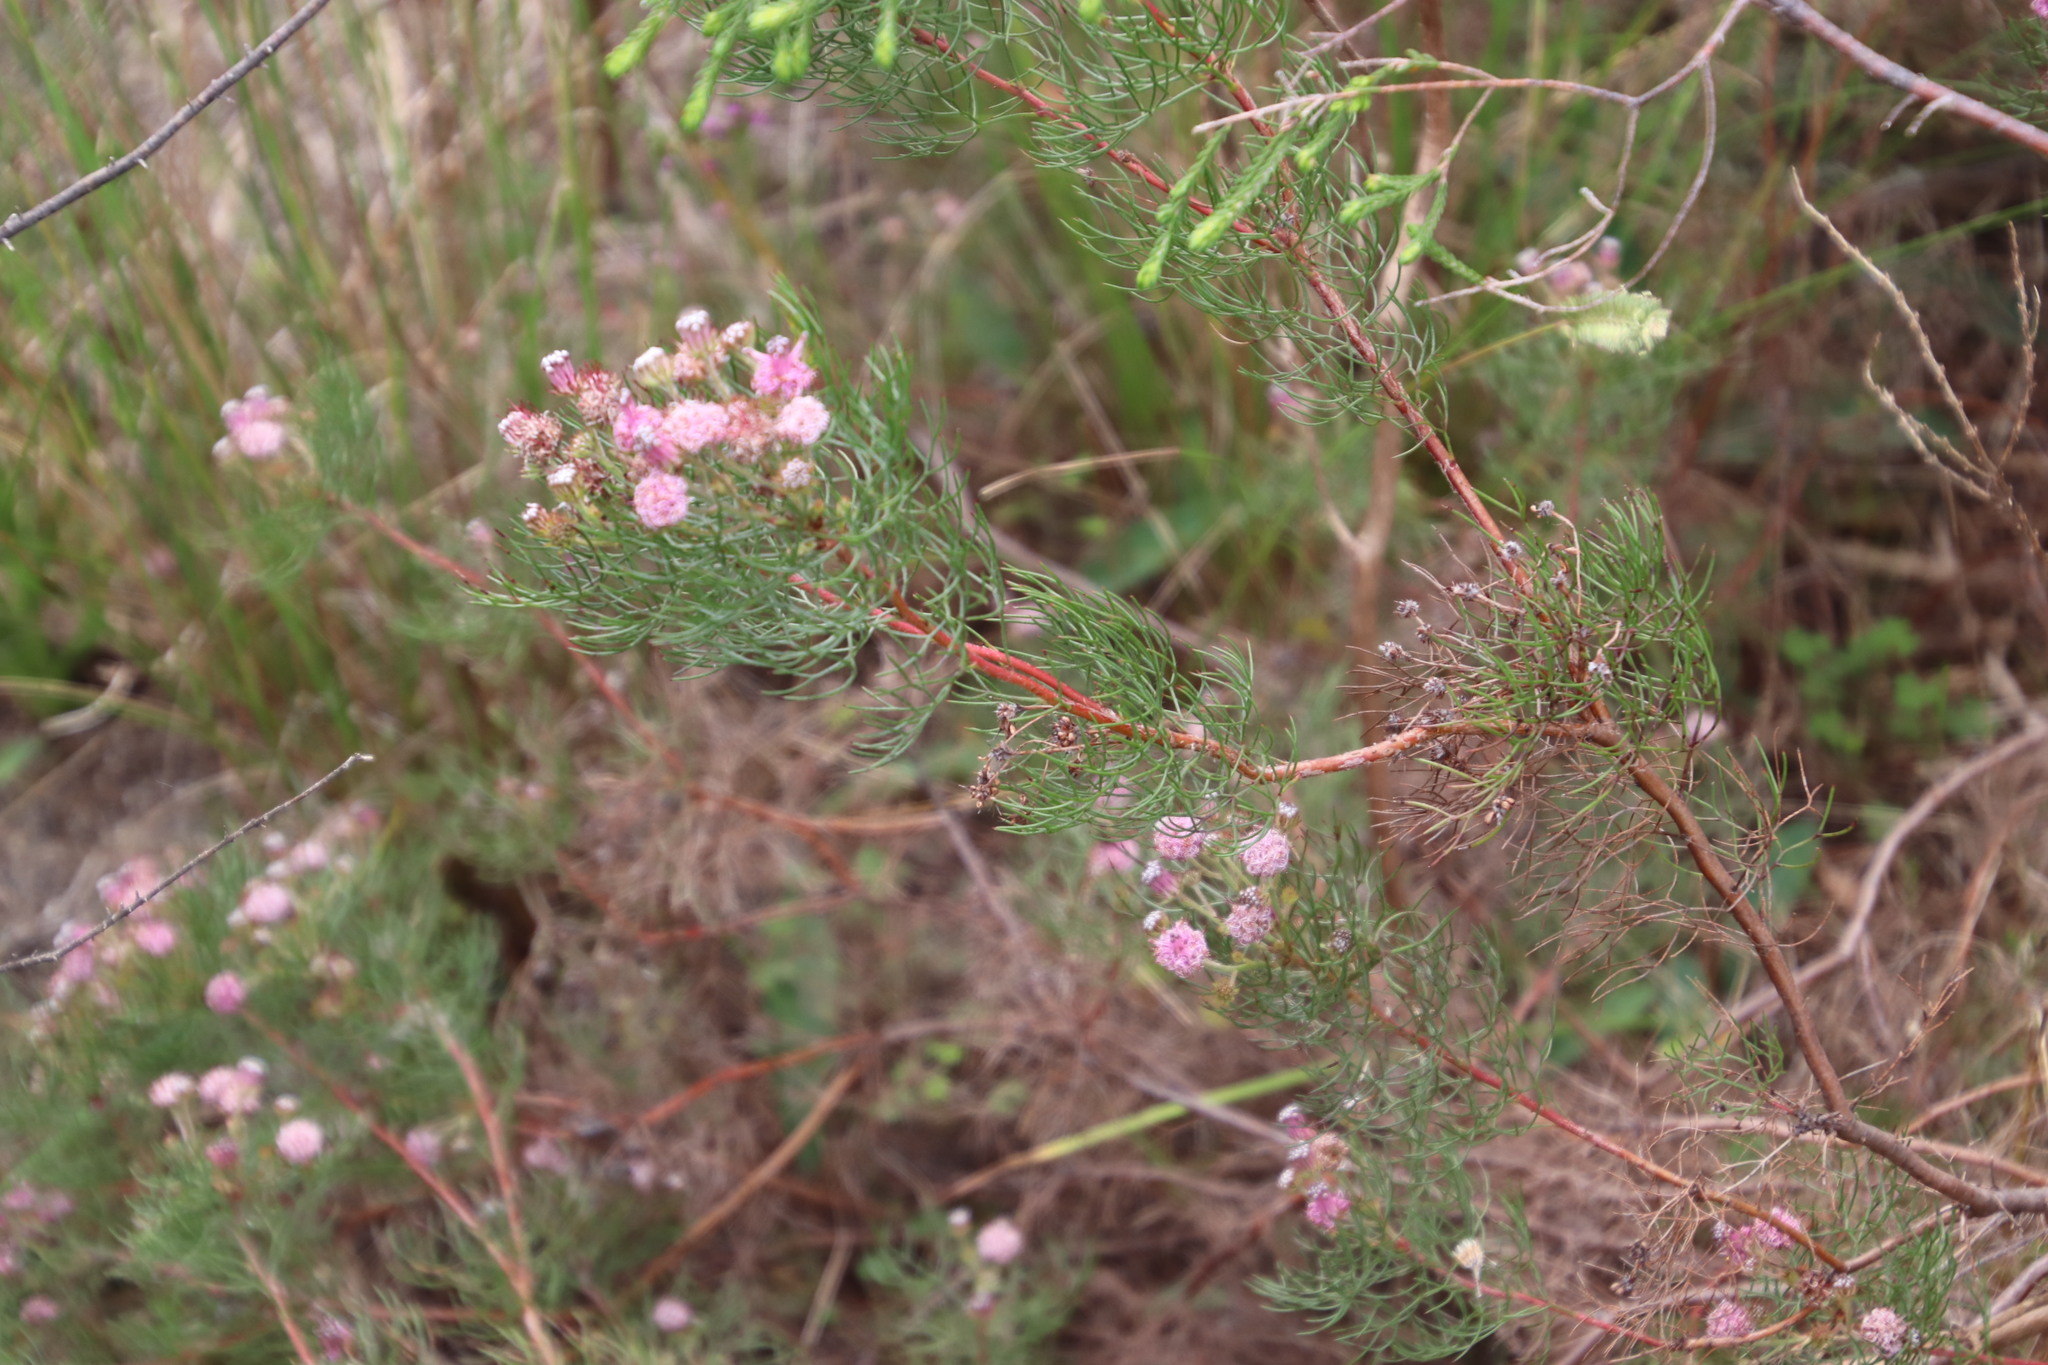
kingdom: Plantae
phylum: Tracheophyta
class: Magnoliopsida
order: Proteales
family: Proteaceae
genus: Serruria
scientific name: Serruria fasciflora
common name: Common pin spiderhead
